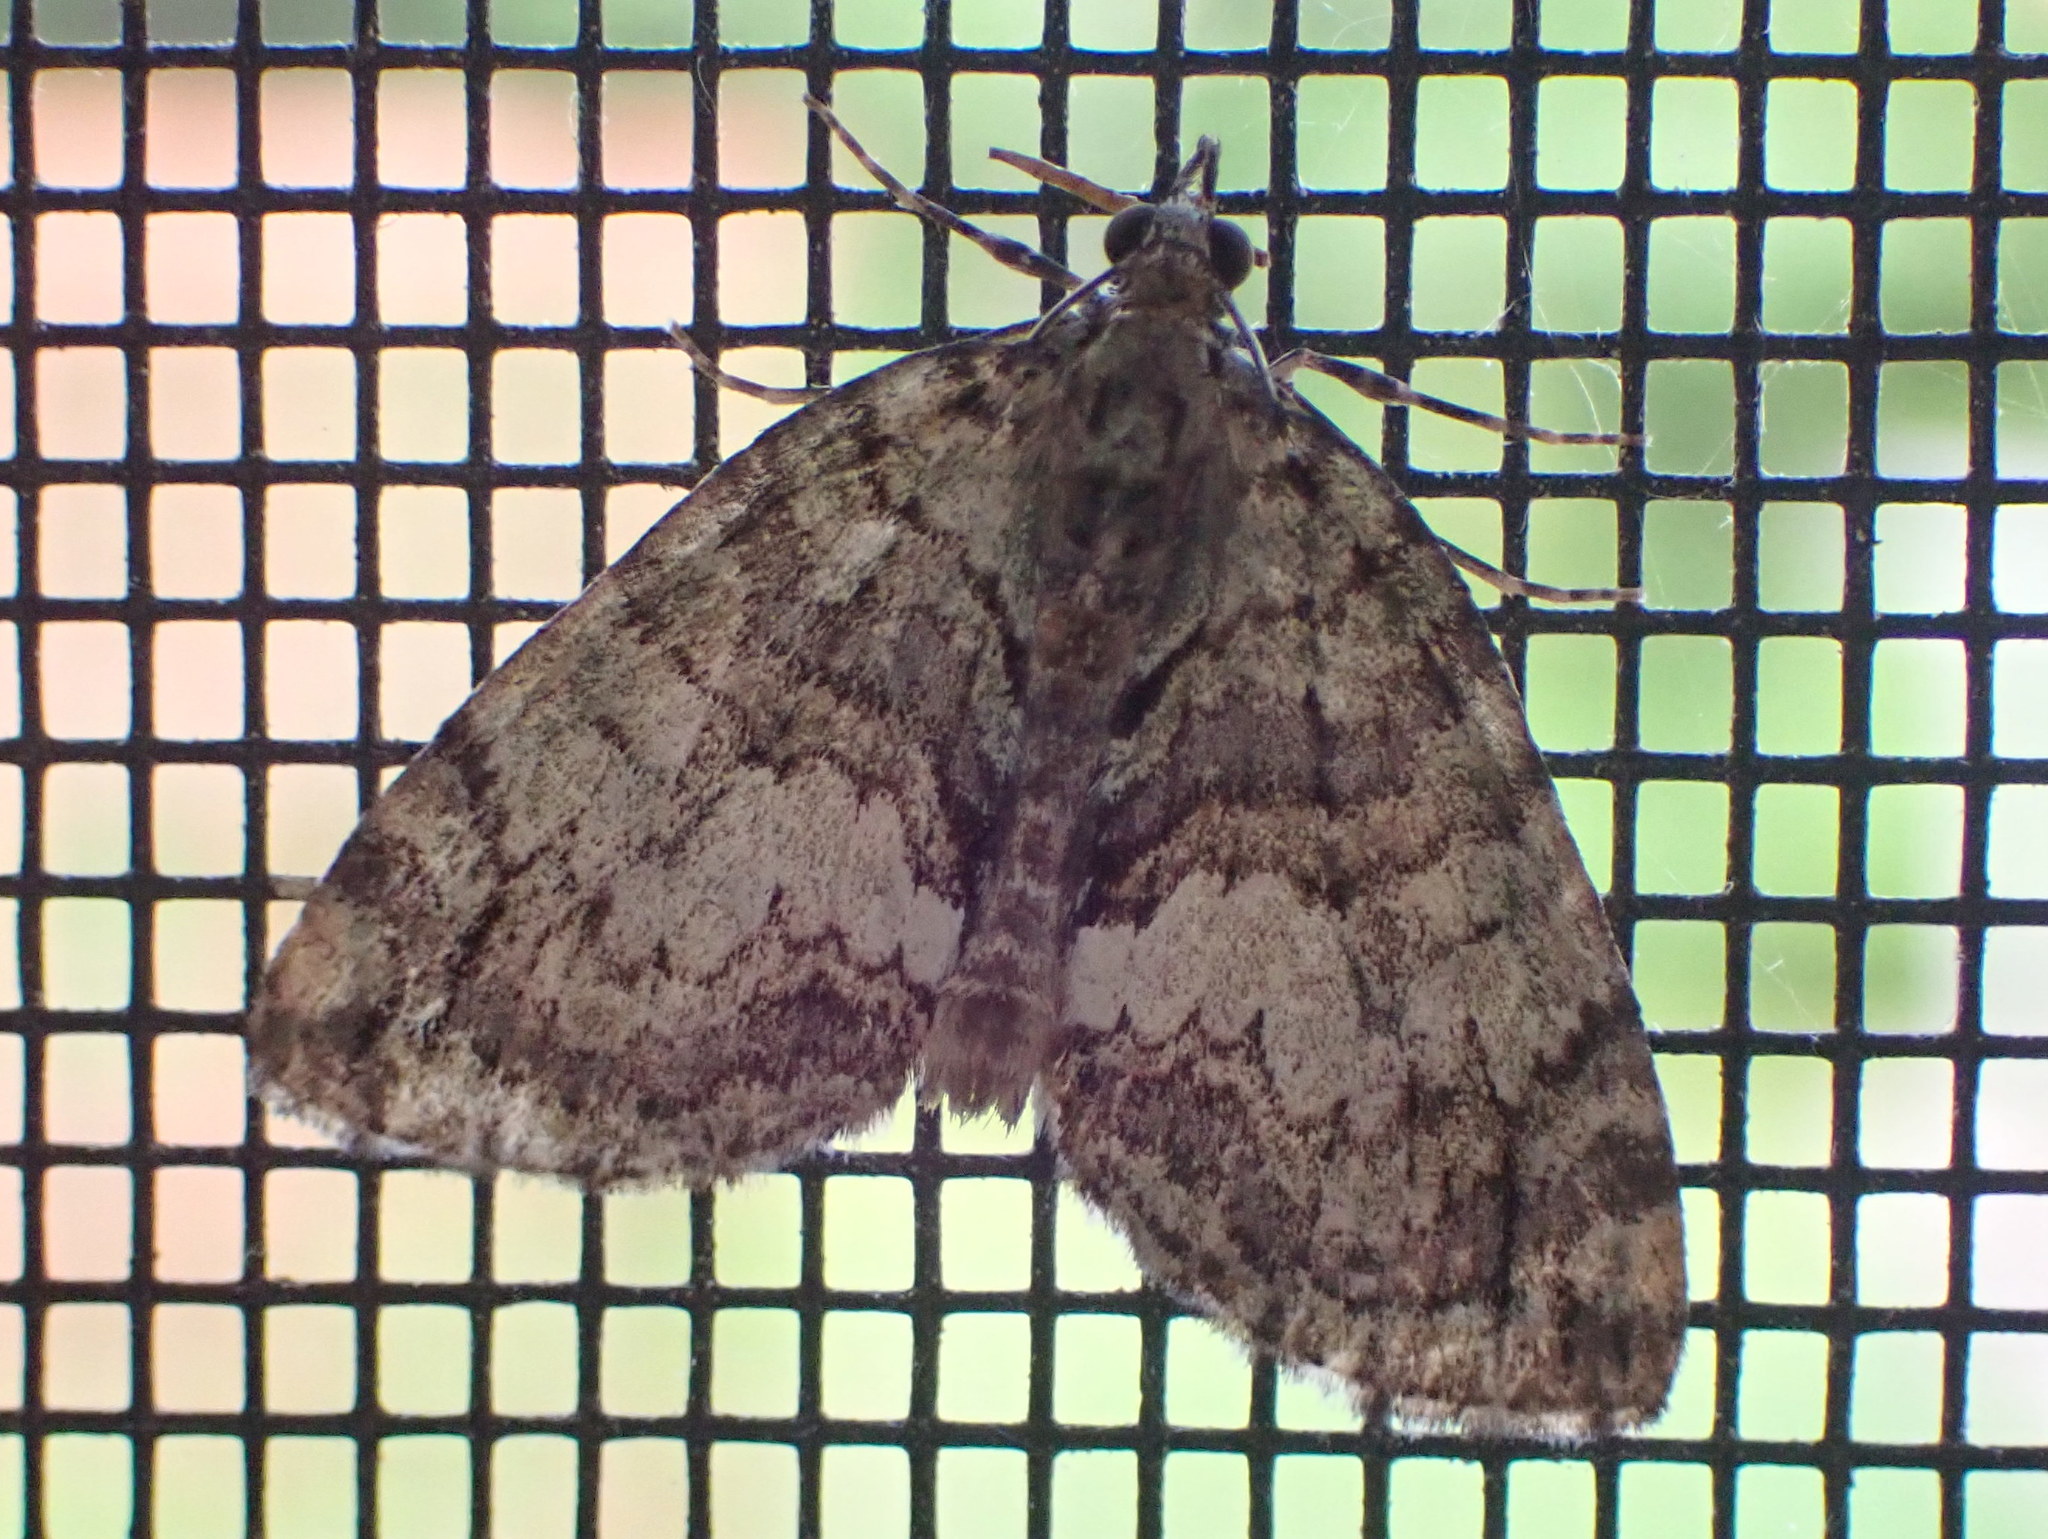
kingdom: Animalia
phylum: Arthropoda
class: Insecta
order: Lepidoptera
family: Geometridae
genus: Hydriomena
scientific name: Hydriomena renunciata
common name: Renounced hydriomena moth
